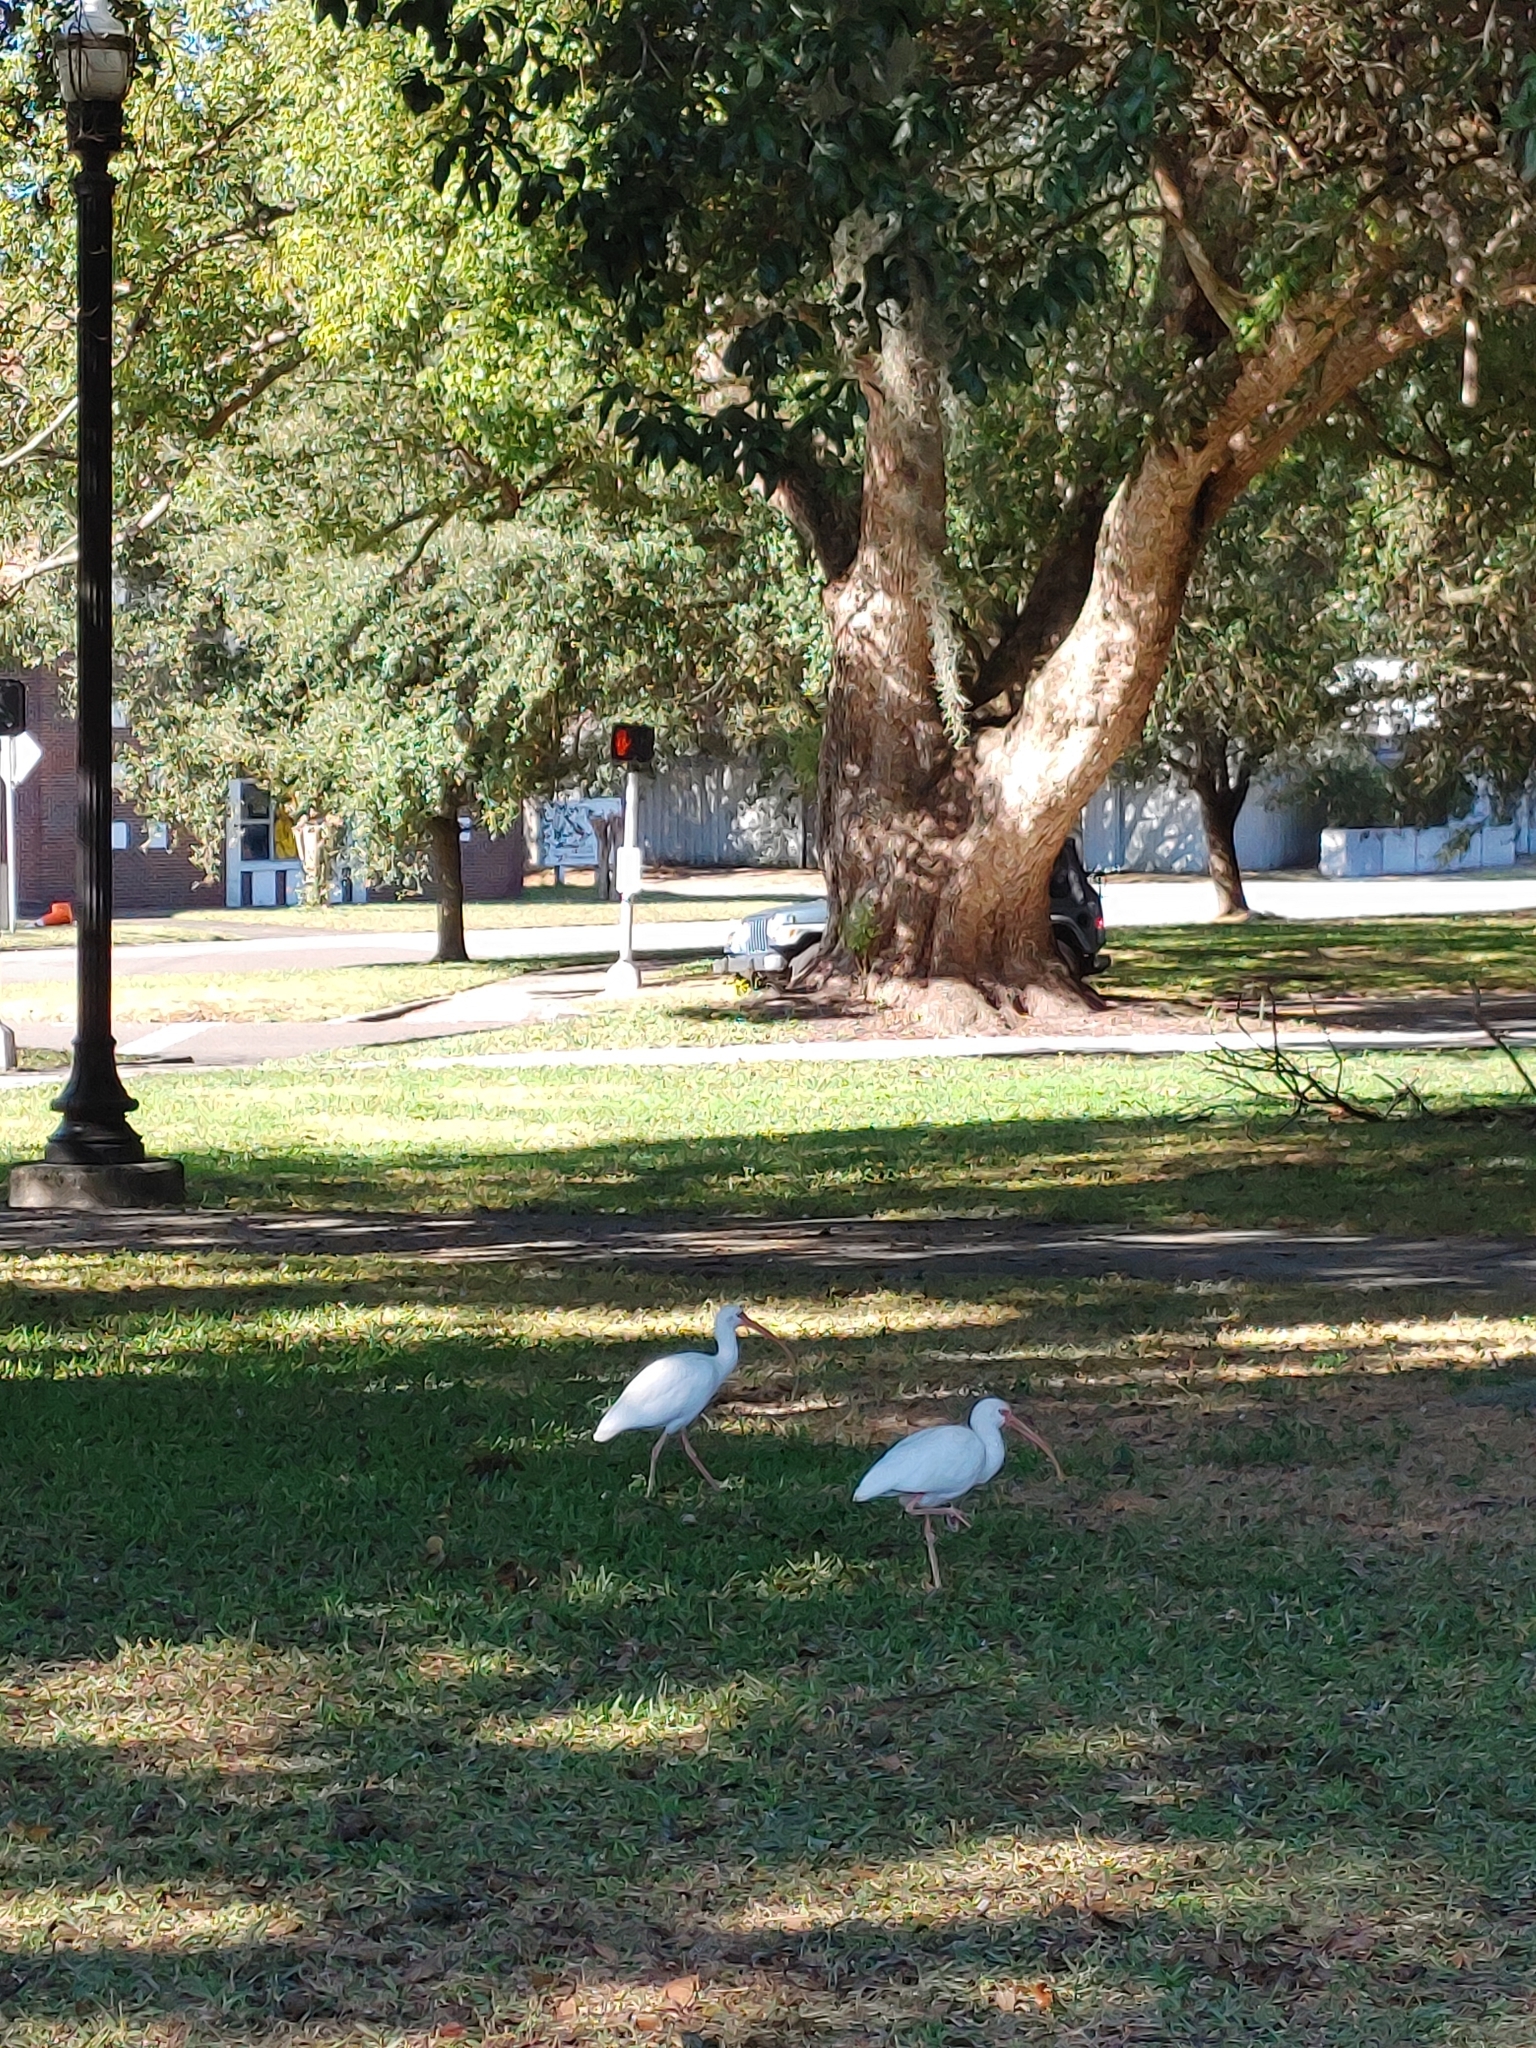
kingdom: Animalia
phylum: Chordata
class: Aves
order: Pelecaniformes
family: Threskiornithidae
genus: Eudocimus
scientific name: Eudocimus albus
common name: White ibis
